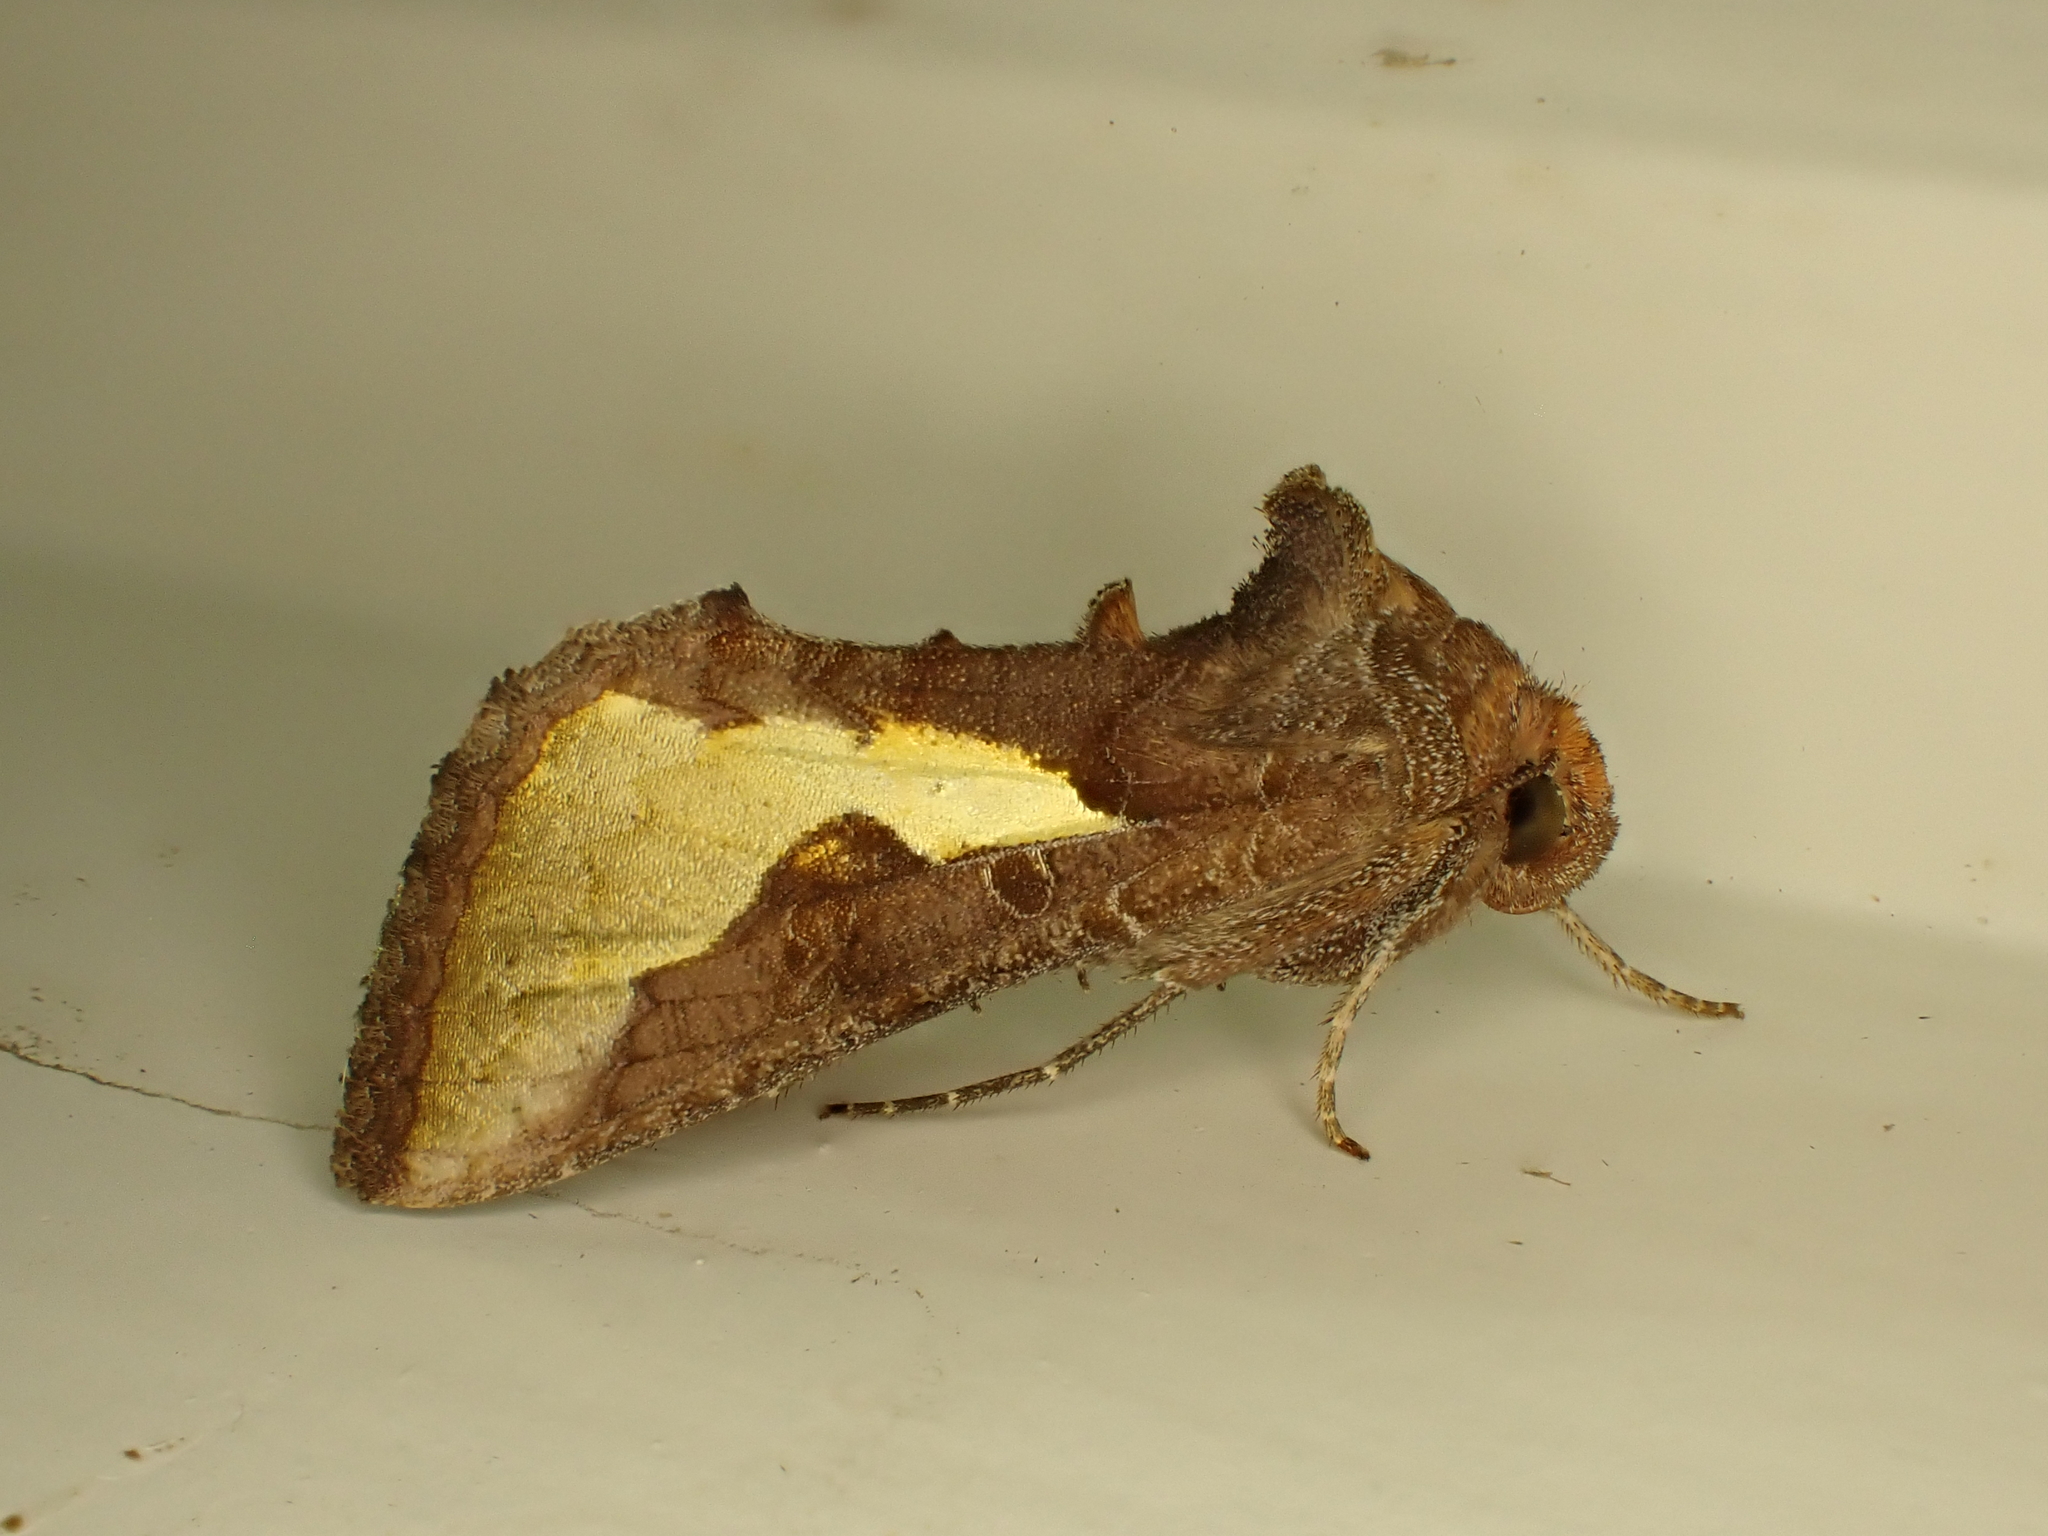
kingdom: Animalia
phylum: Arthropoda
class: Insecta
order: Lepidoptera
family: Noctuidae
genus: Thysanoplusia
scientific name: Thysanoplusia orichalcea
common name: Slender burnished brass, golden plusia
